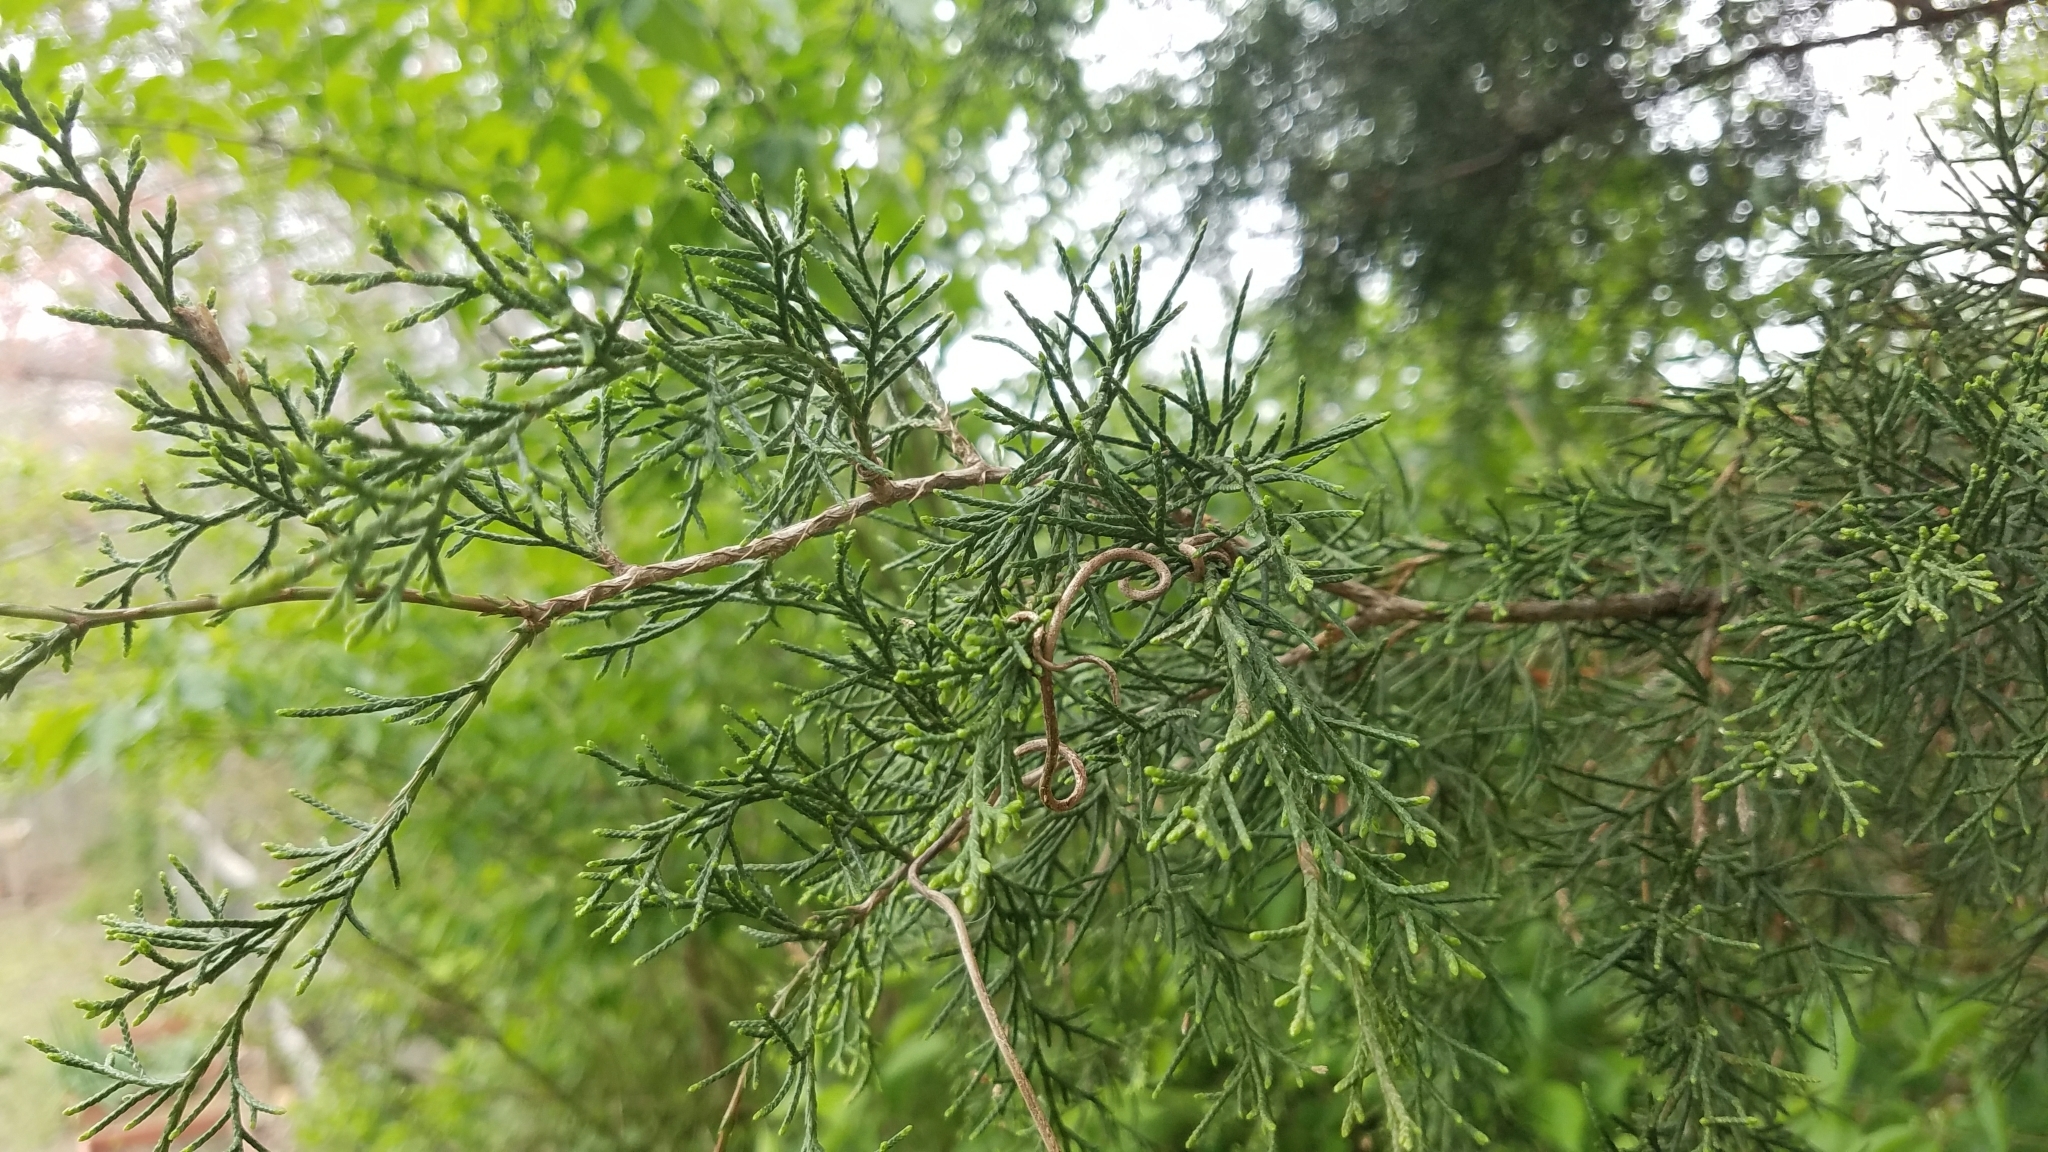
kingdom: Plantae
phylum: Tracheophyta
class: Pinopsida
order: Pinales
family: Cupressaceae
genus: Juniperus
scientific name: Juniperus virginiana
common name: Red juniper
